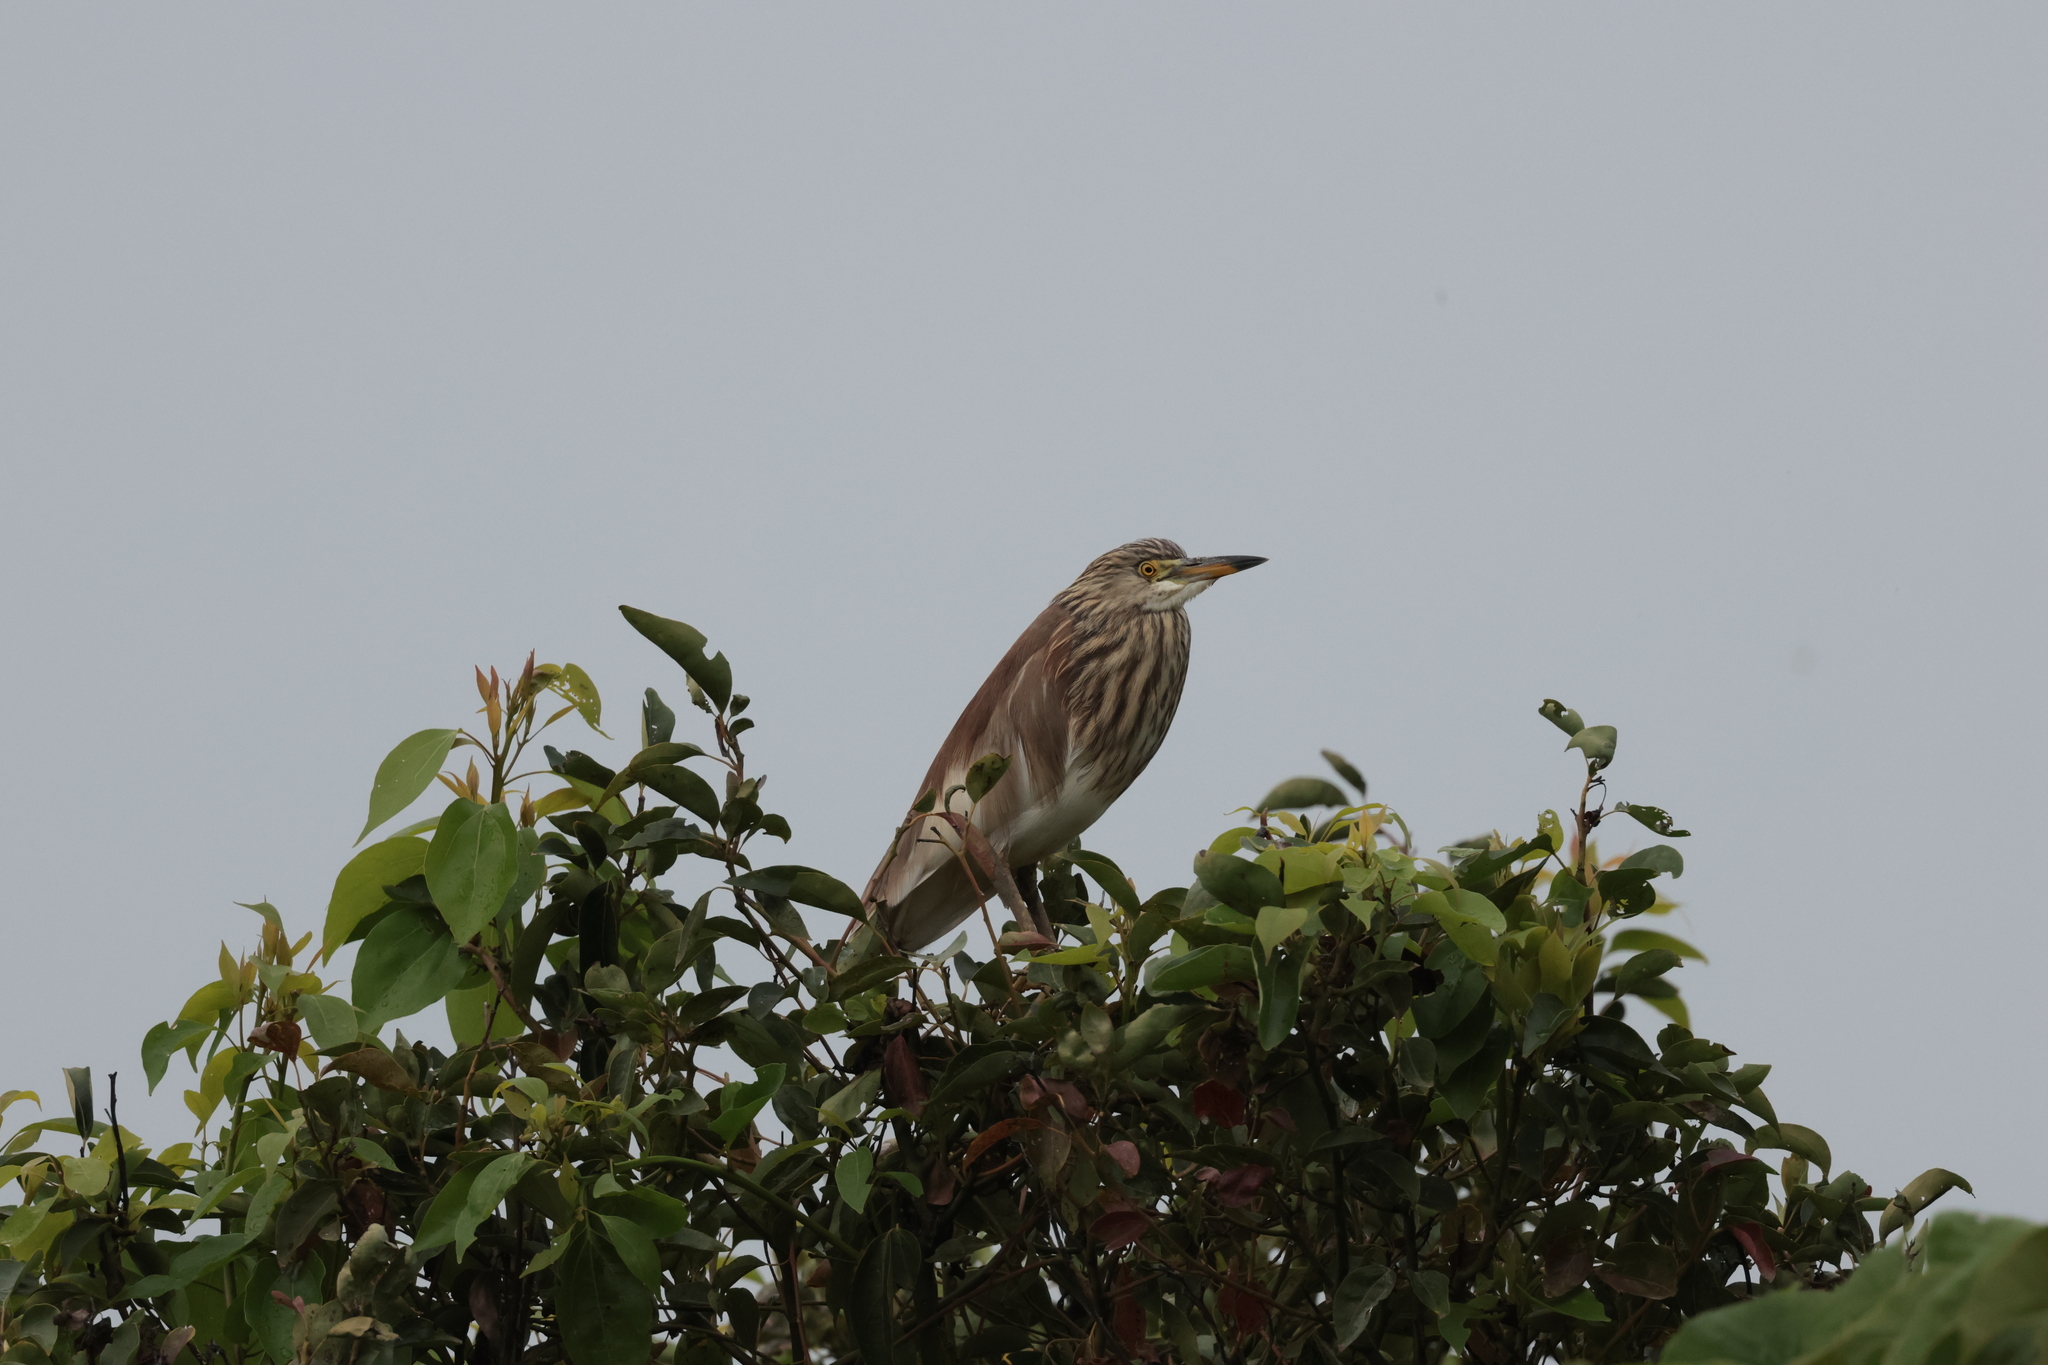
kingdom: Animalia
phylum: Chordata
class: Aves
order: Pelecaniformes
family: Ardeidae
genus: Ardeola
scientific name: Ardeola bacchus
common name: Chinese pond heron
